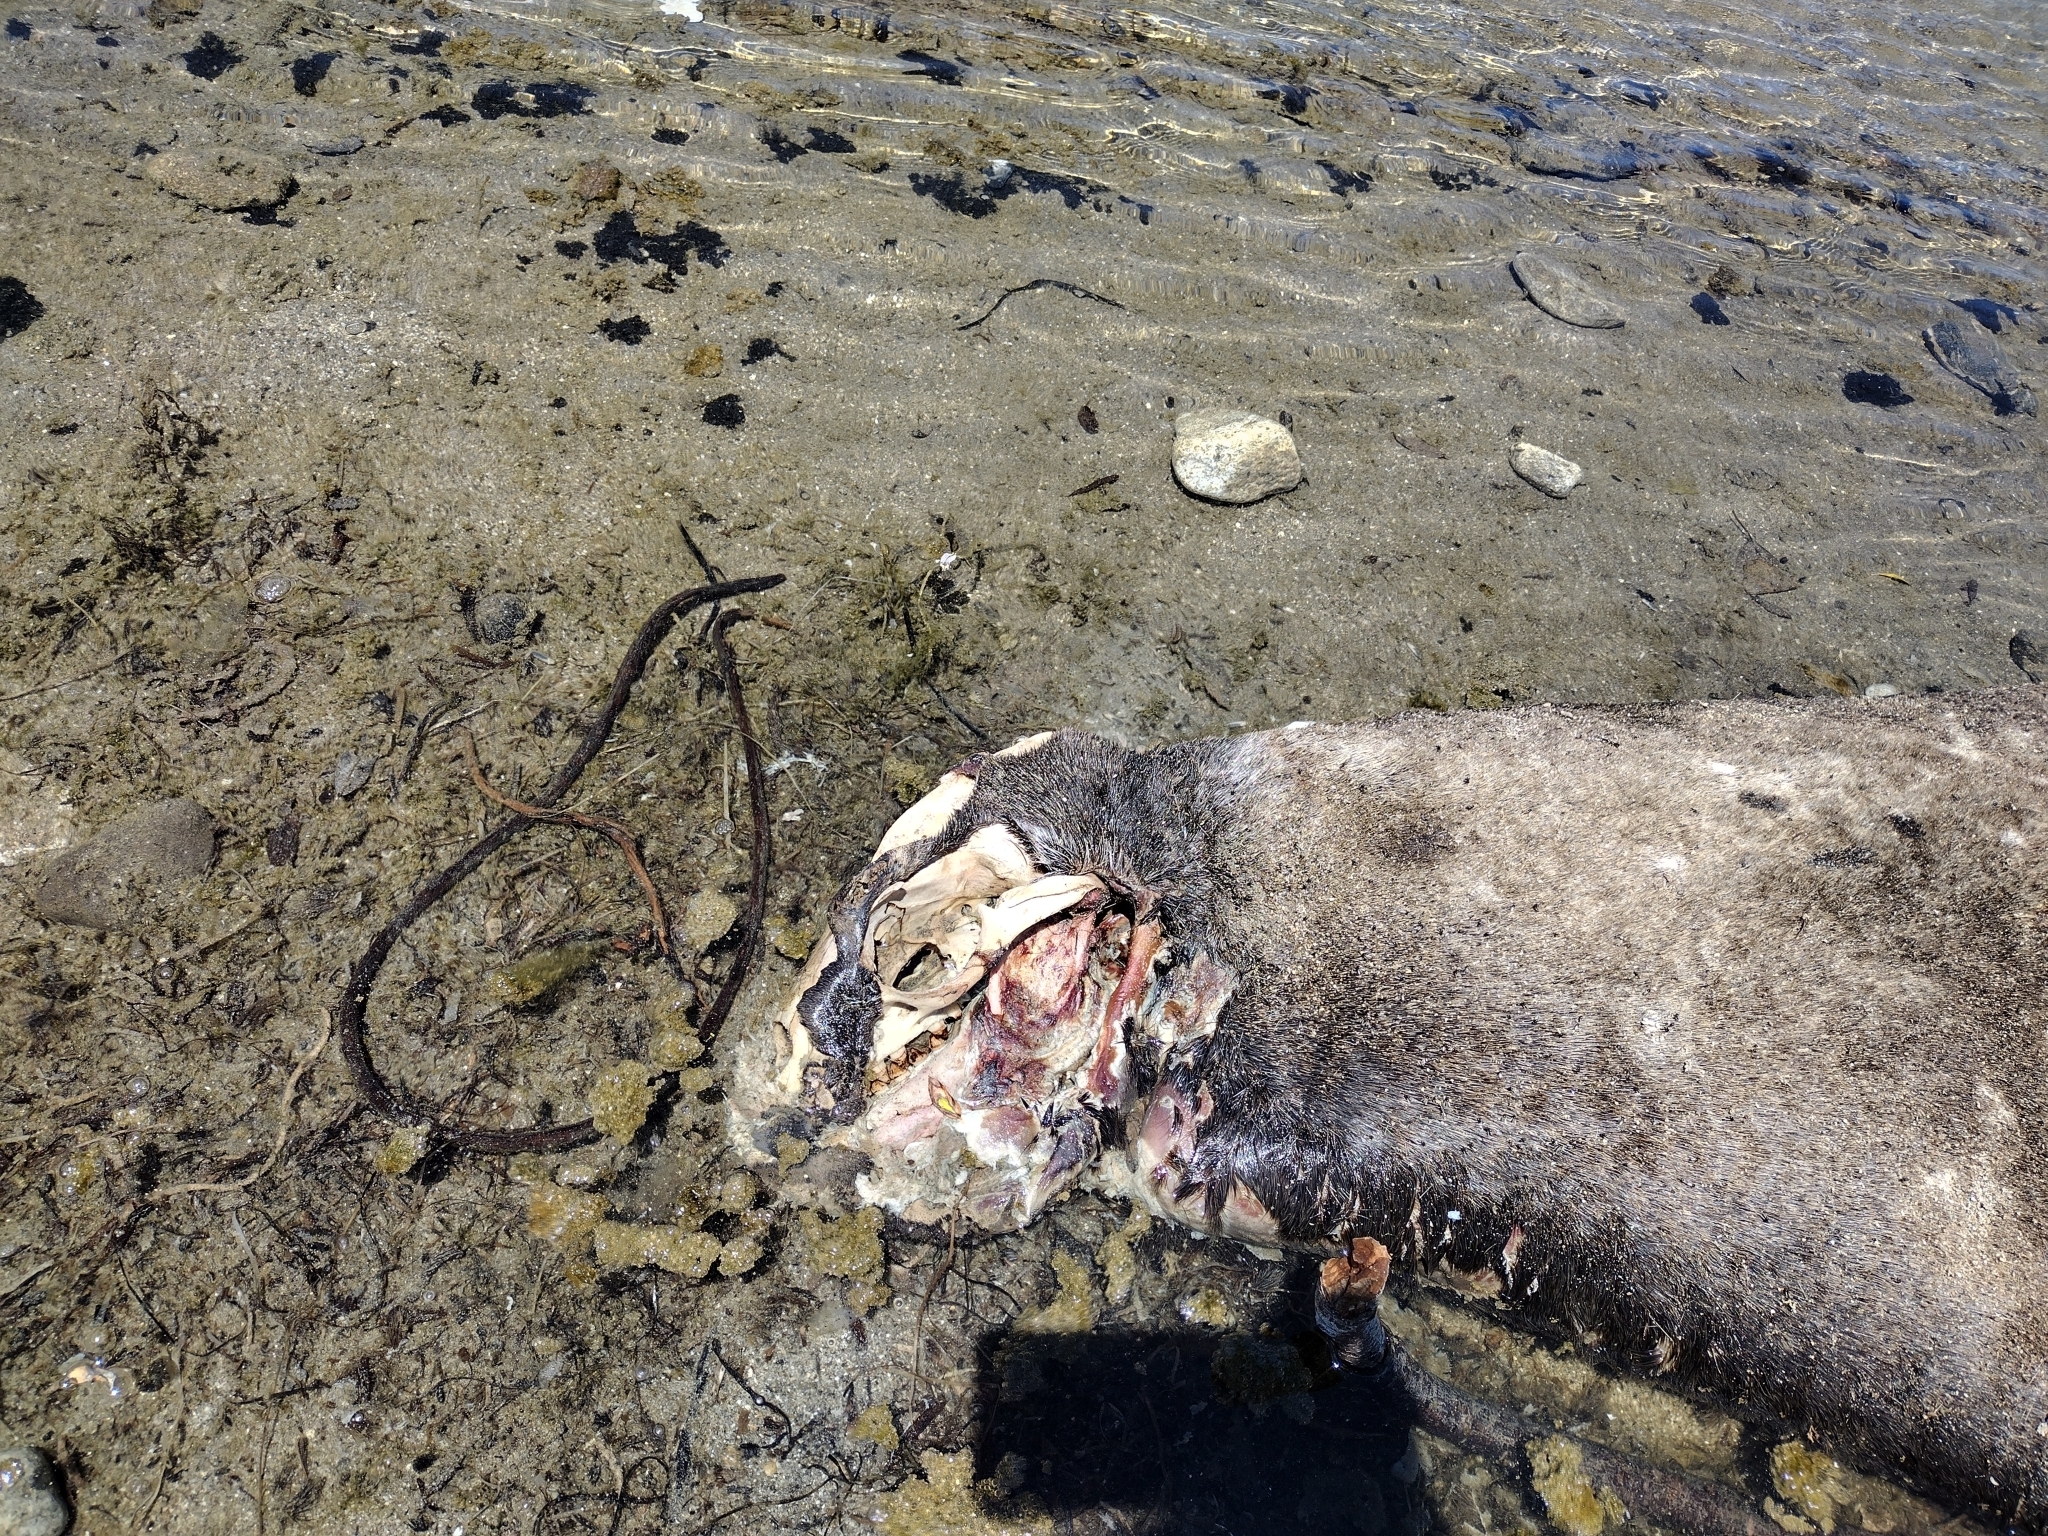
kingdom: Animalia
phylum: Chordata
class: Mammalia
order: Carnivora
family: Otariidae
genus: Zalophus
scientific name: Zalophus californianus
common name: California sea lion
